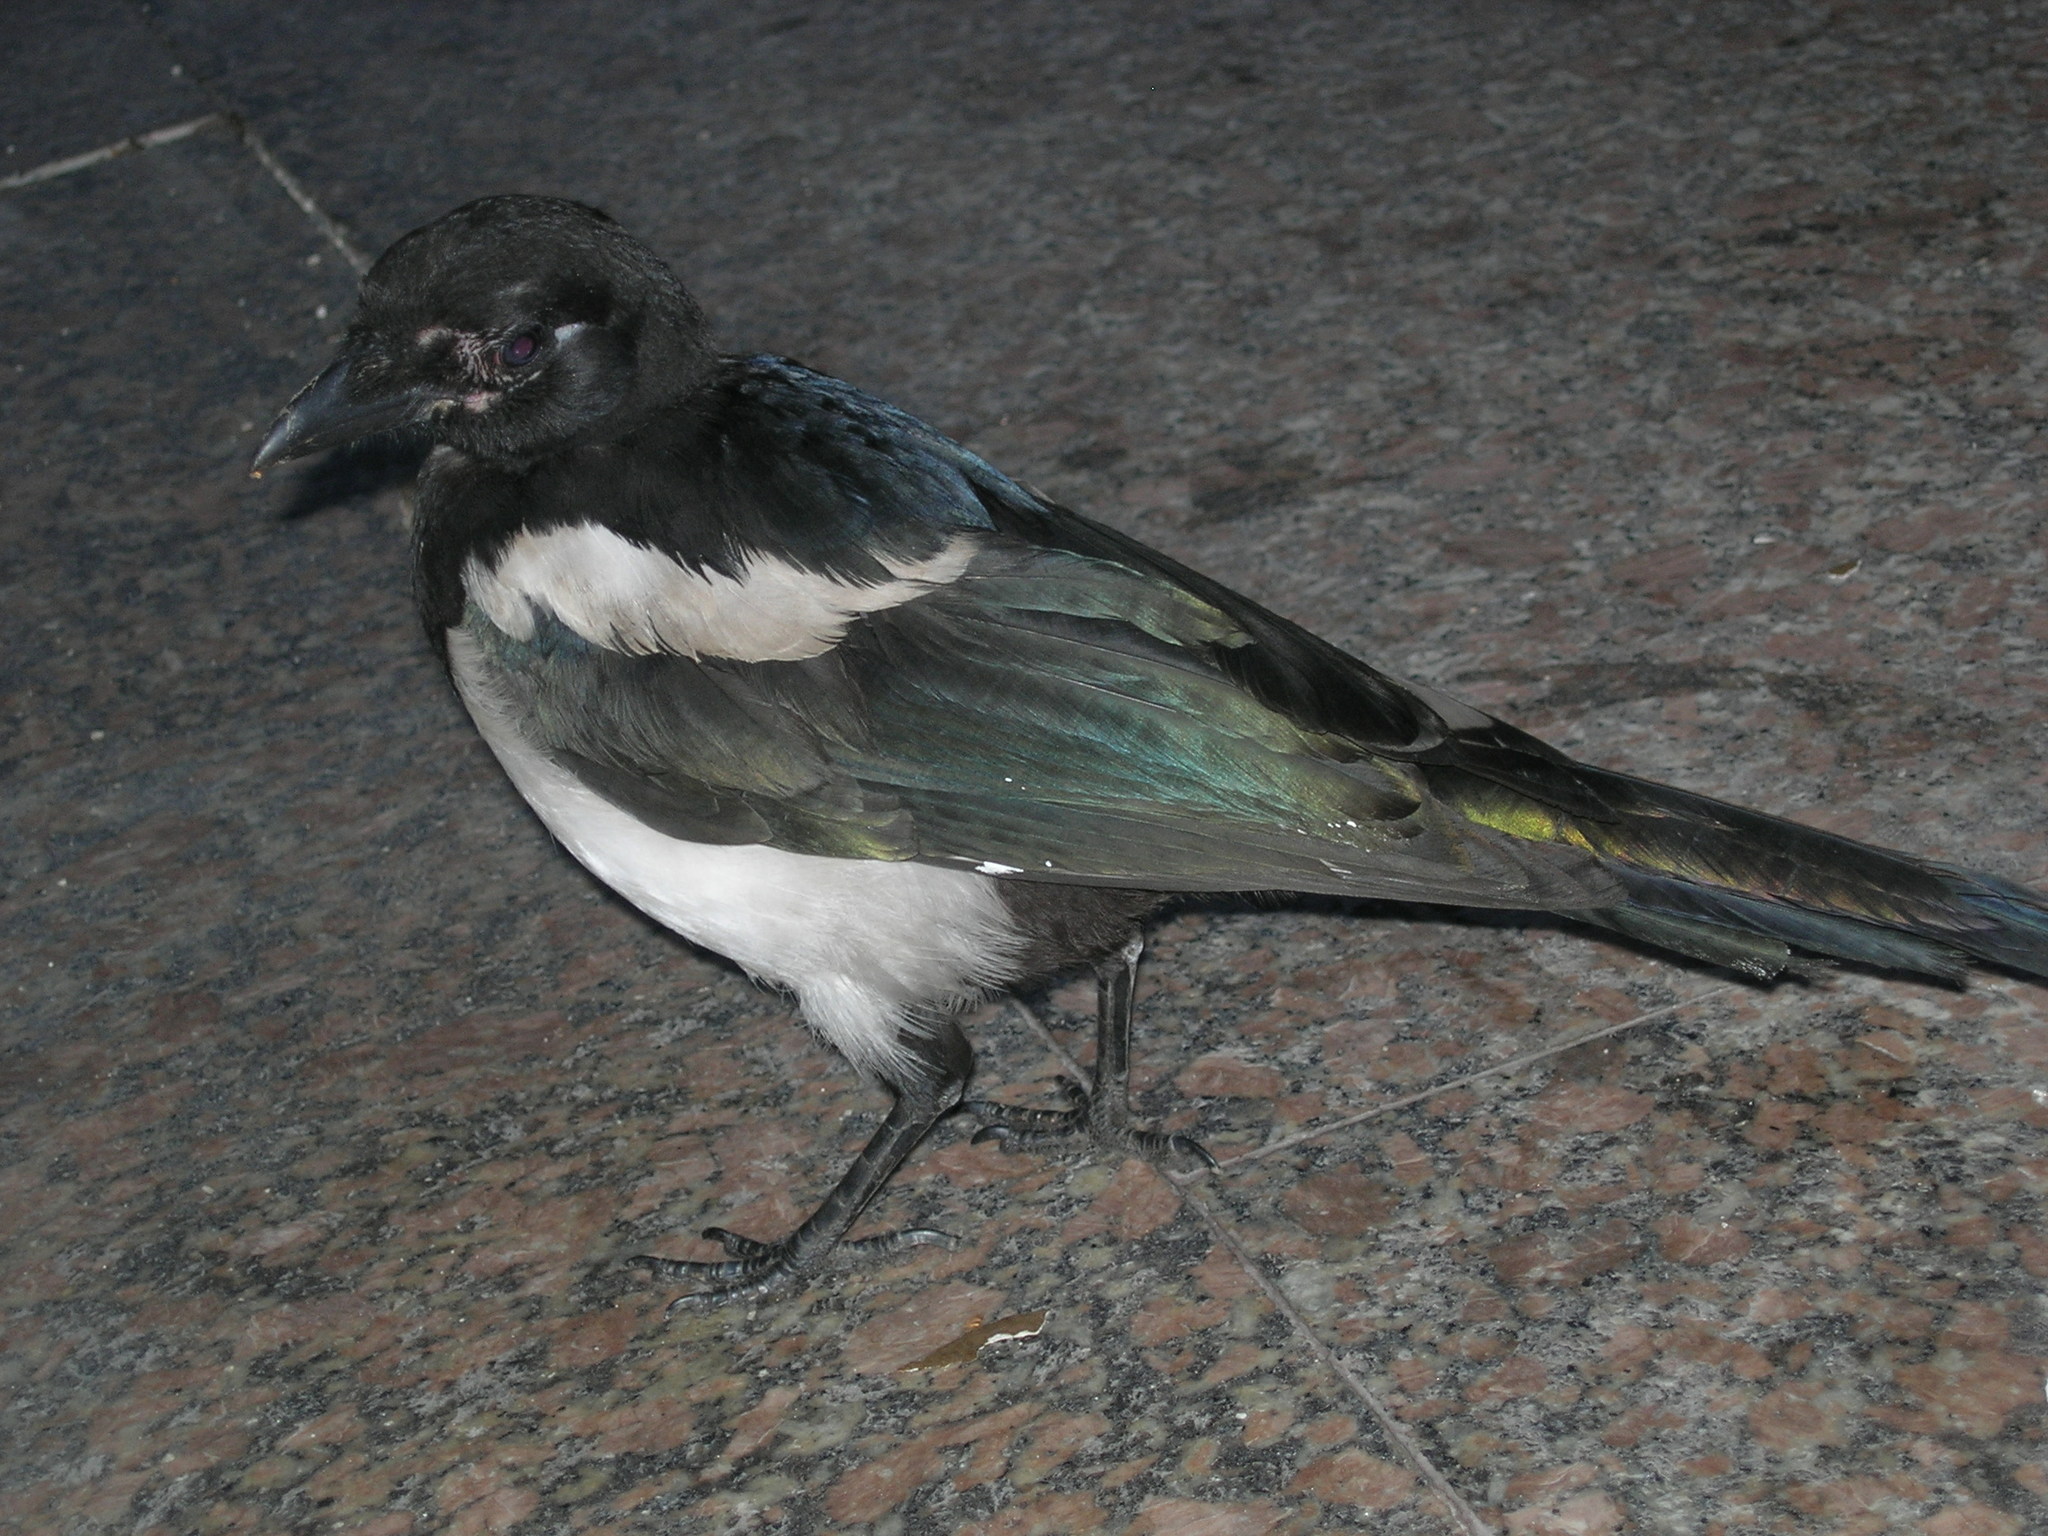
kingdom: Animalia
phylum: Chordata
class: Aves
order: Passeriformes
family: Corvidae
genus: Pica
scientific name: Pica pica
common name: Eurasian magpie
